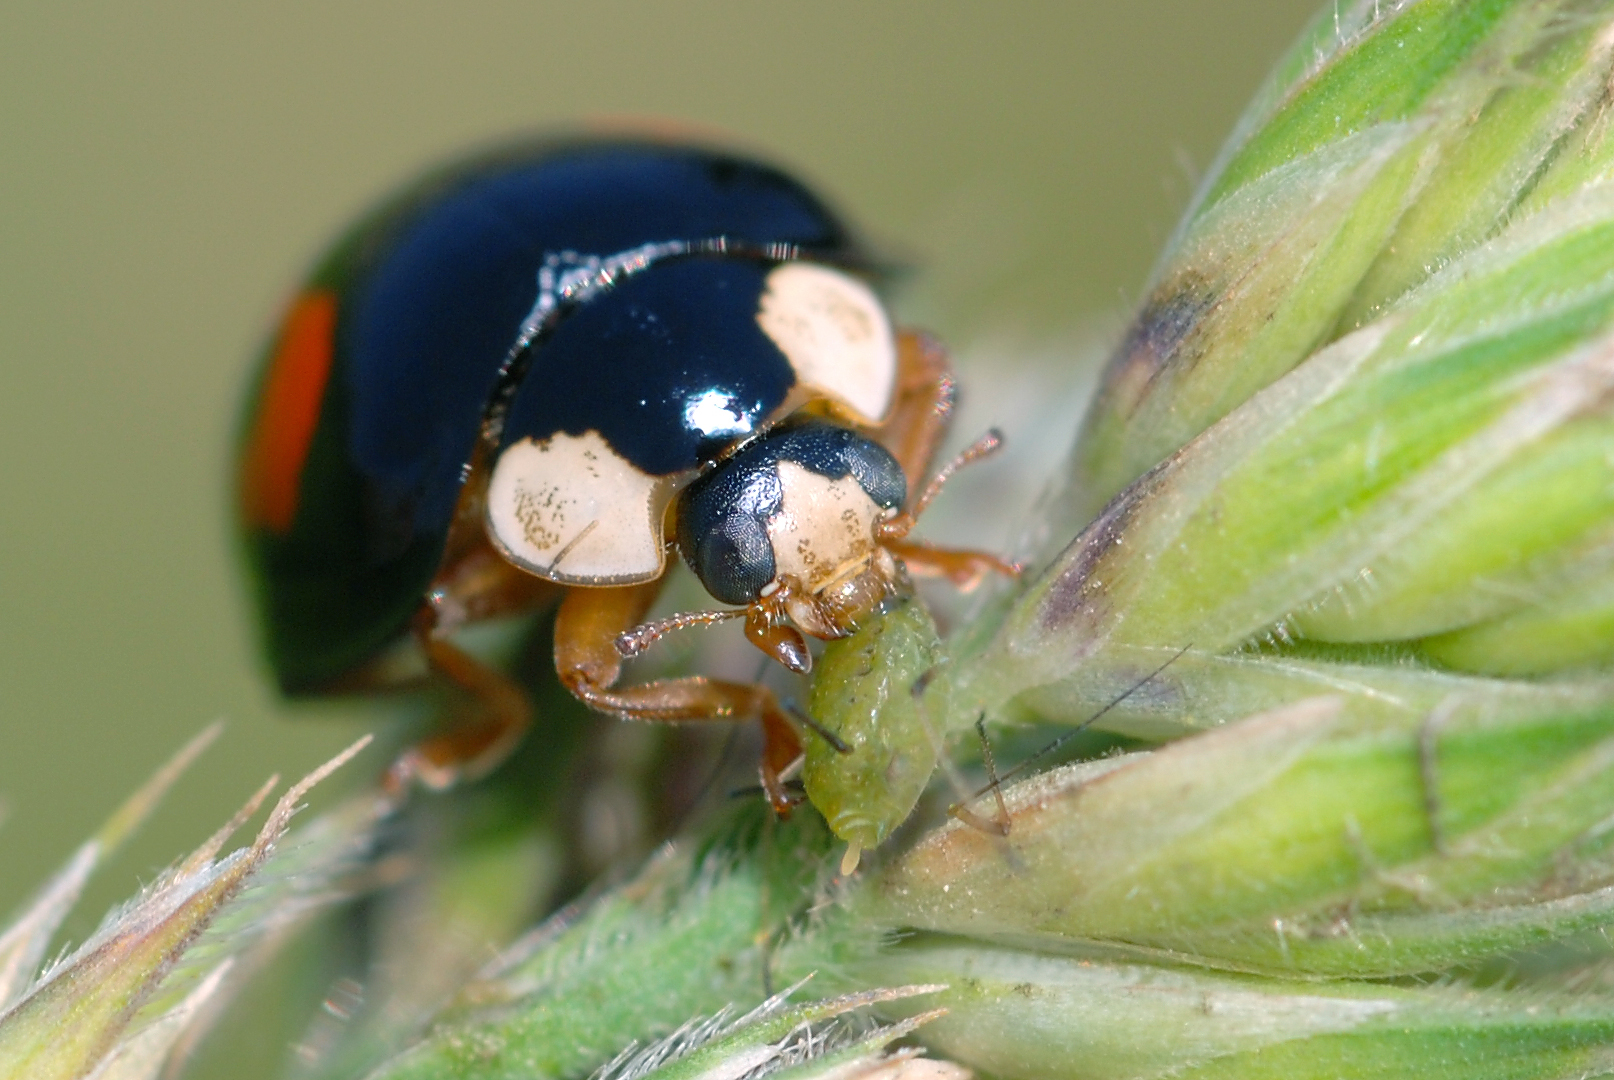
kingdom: Animalia
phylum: Arthropoda
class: Insecta
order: Coleoptera
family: Coccinellidae
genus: Harmonia
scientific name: Harmonia axyridis
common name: Harlequin ladybird
